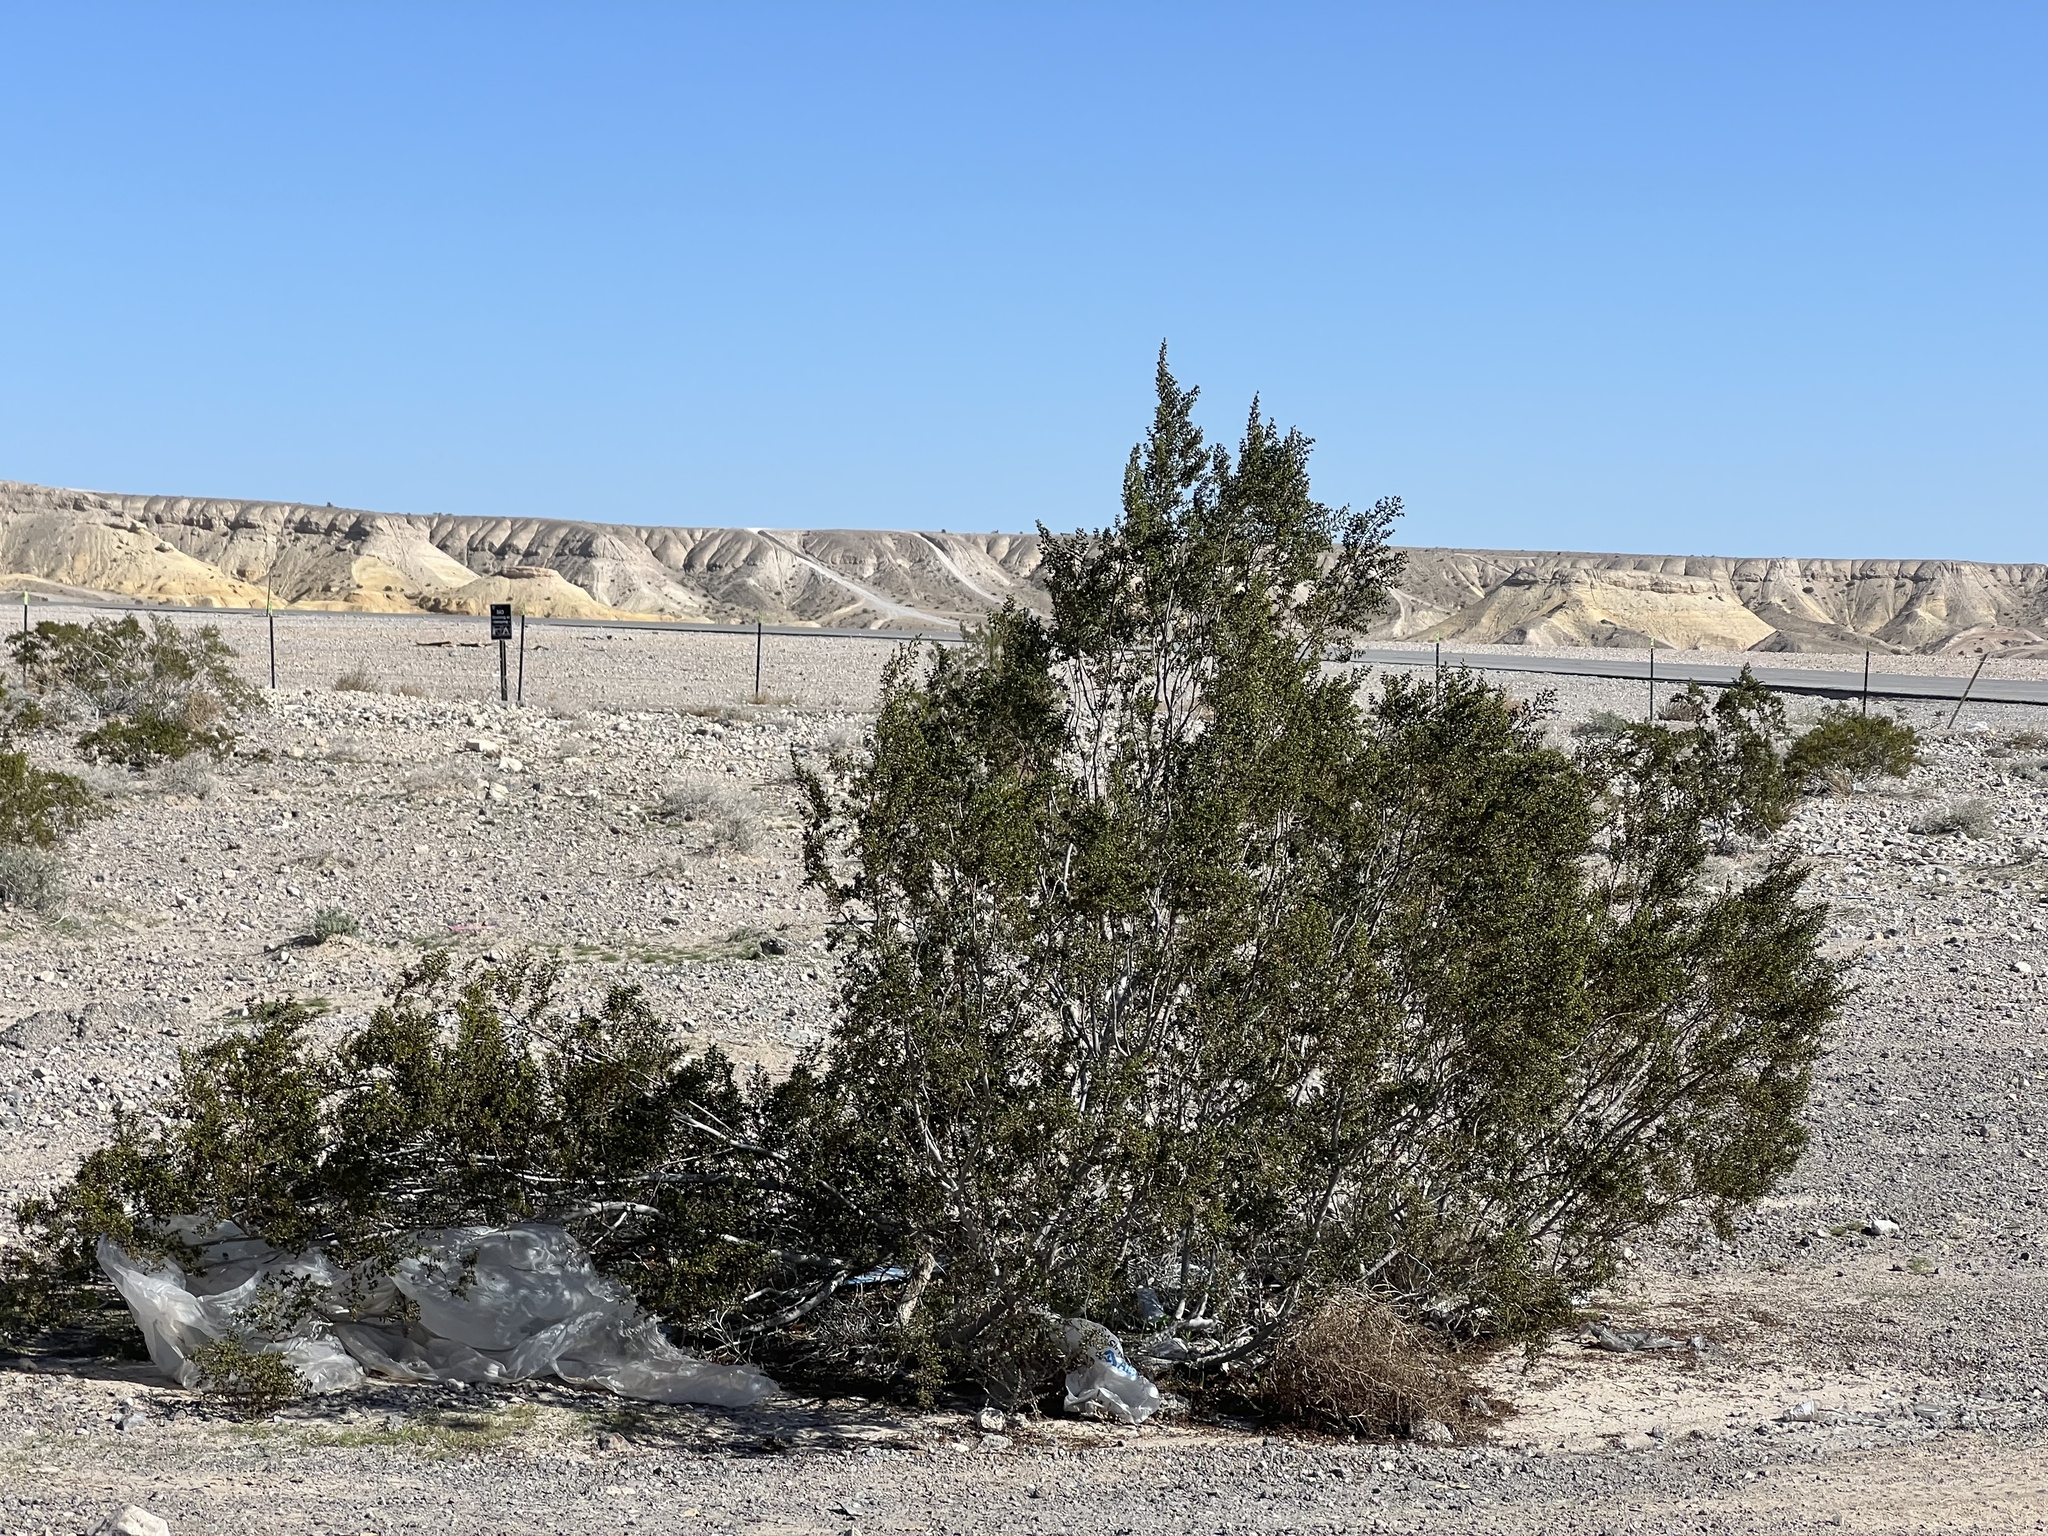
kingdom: Plantae
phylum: Tracheophyta
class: Magnoliopsida
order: Zygophyllales
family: Zygophyllaceae
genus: Larrea
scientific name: Larrea tridentata
